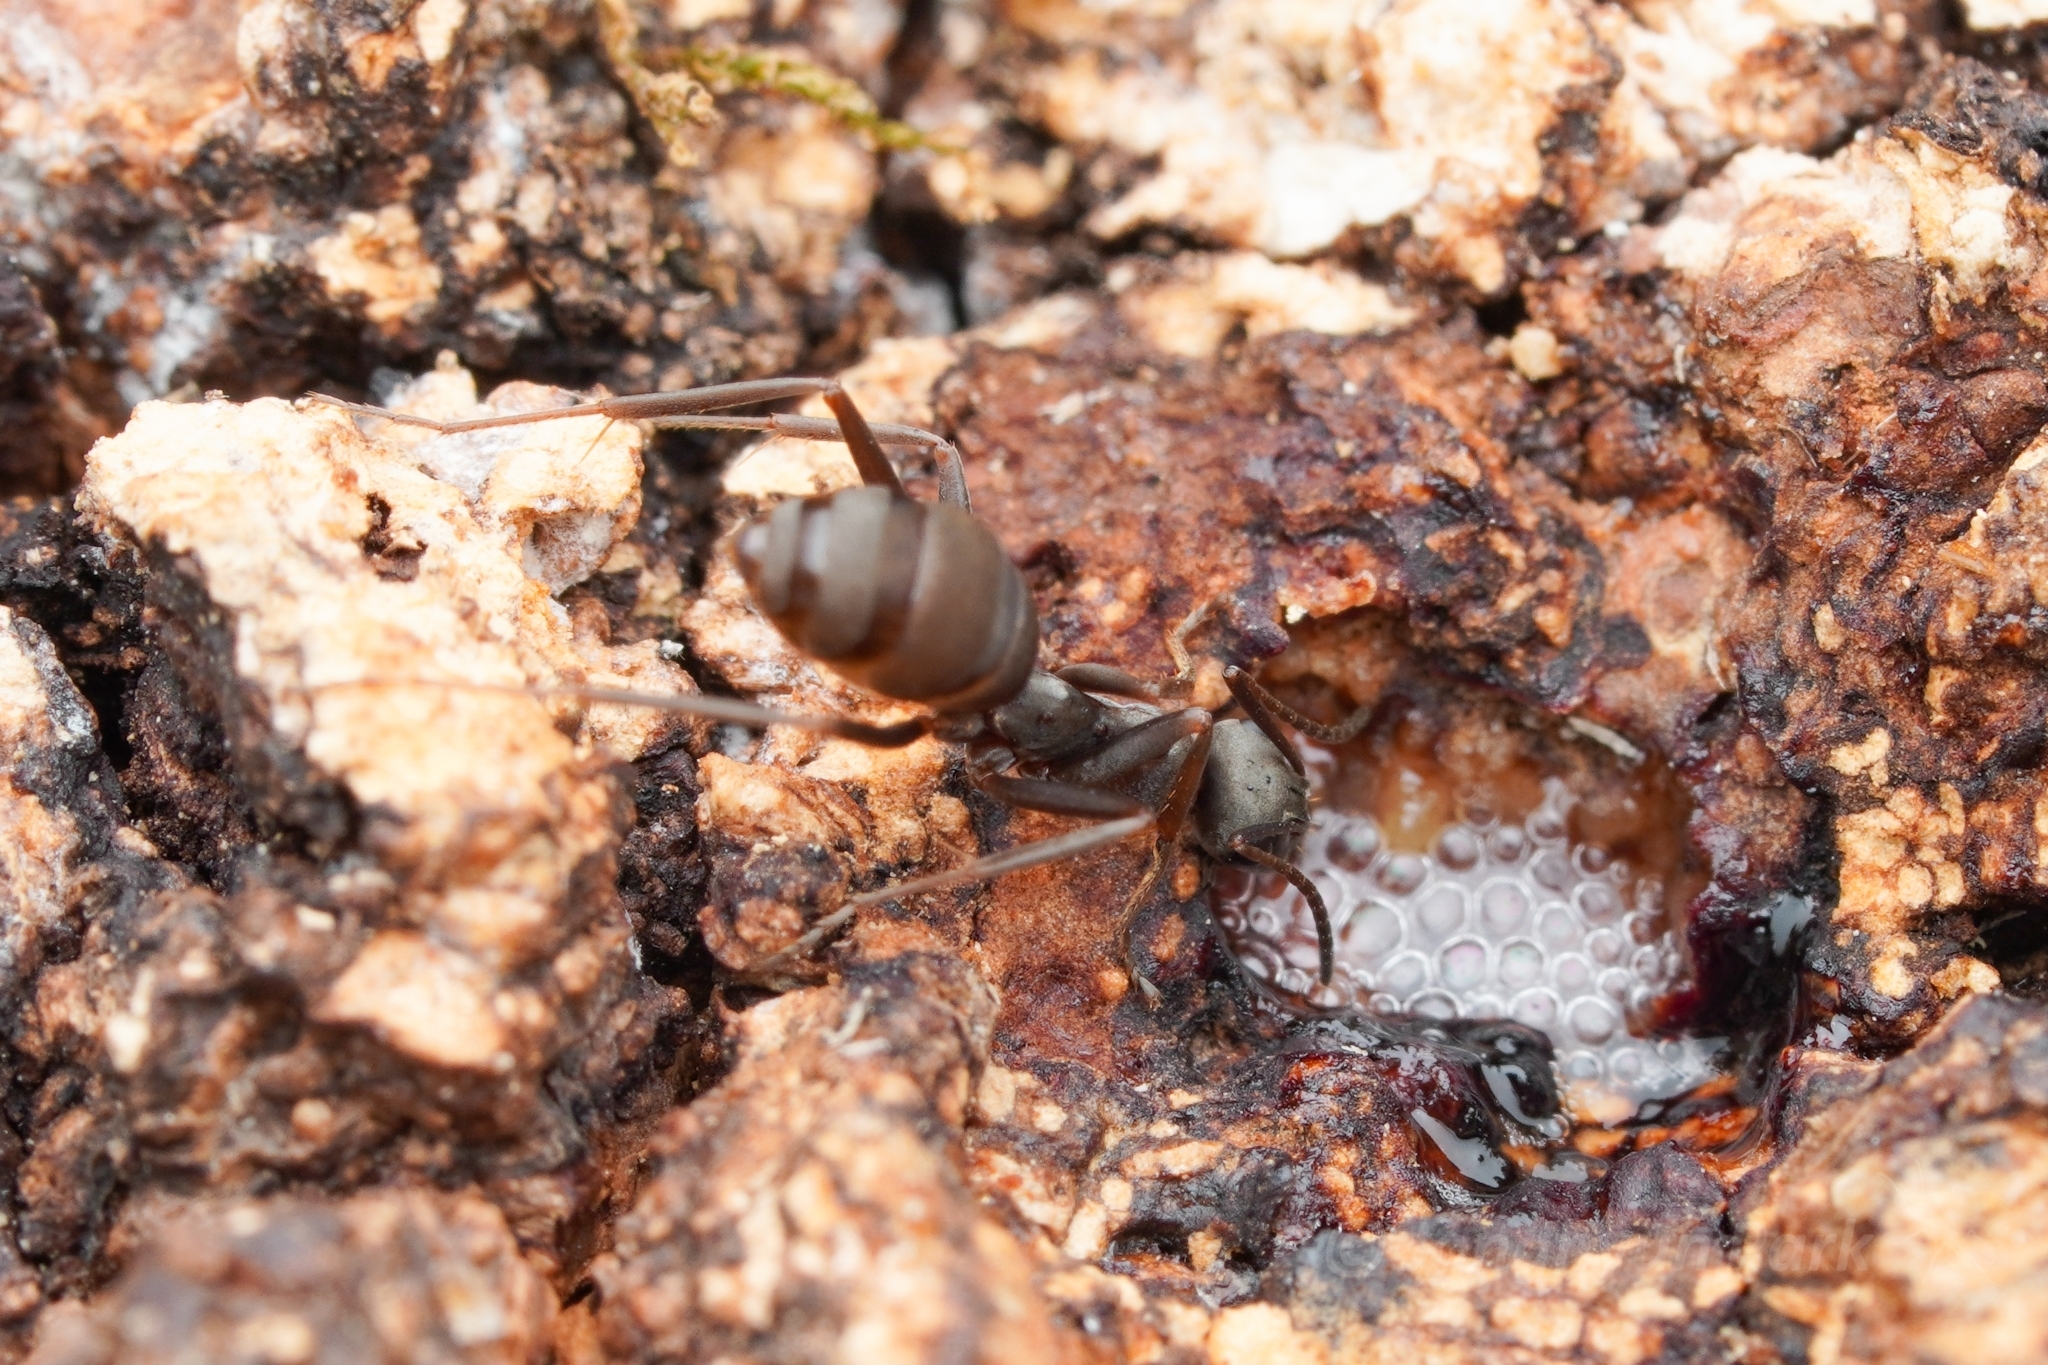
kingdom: Animalia
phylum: Arthropoda
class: Insecta
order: Hymenoptera
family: Formicidae
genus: Formica
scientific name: Formica japonica
